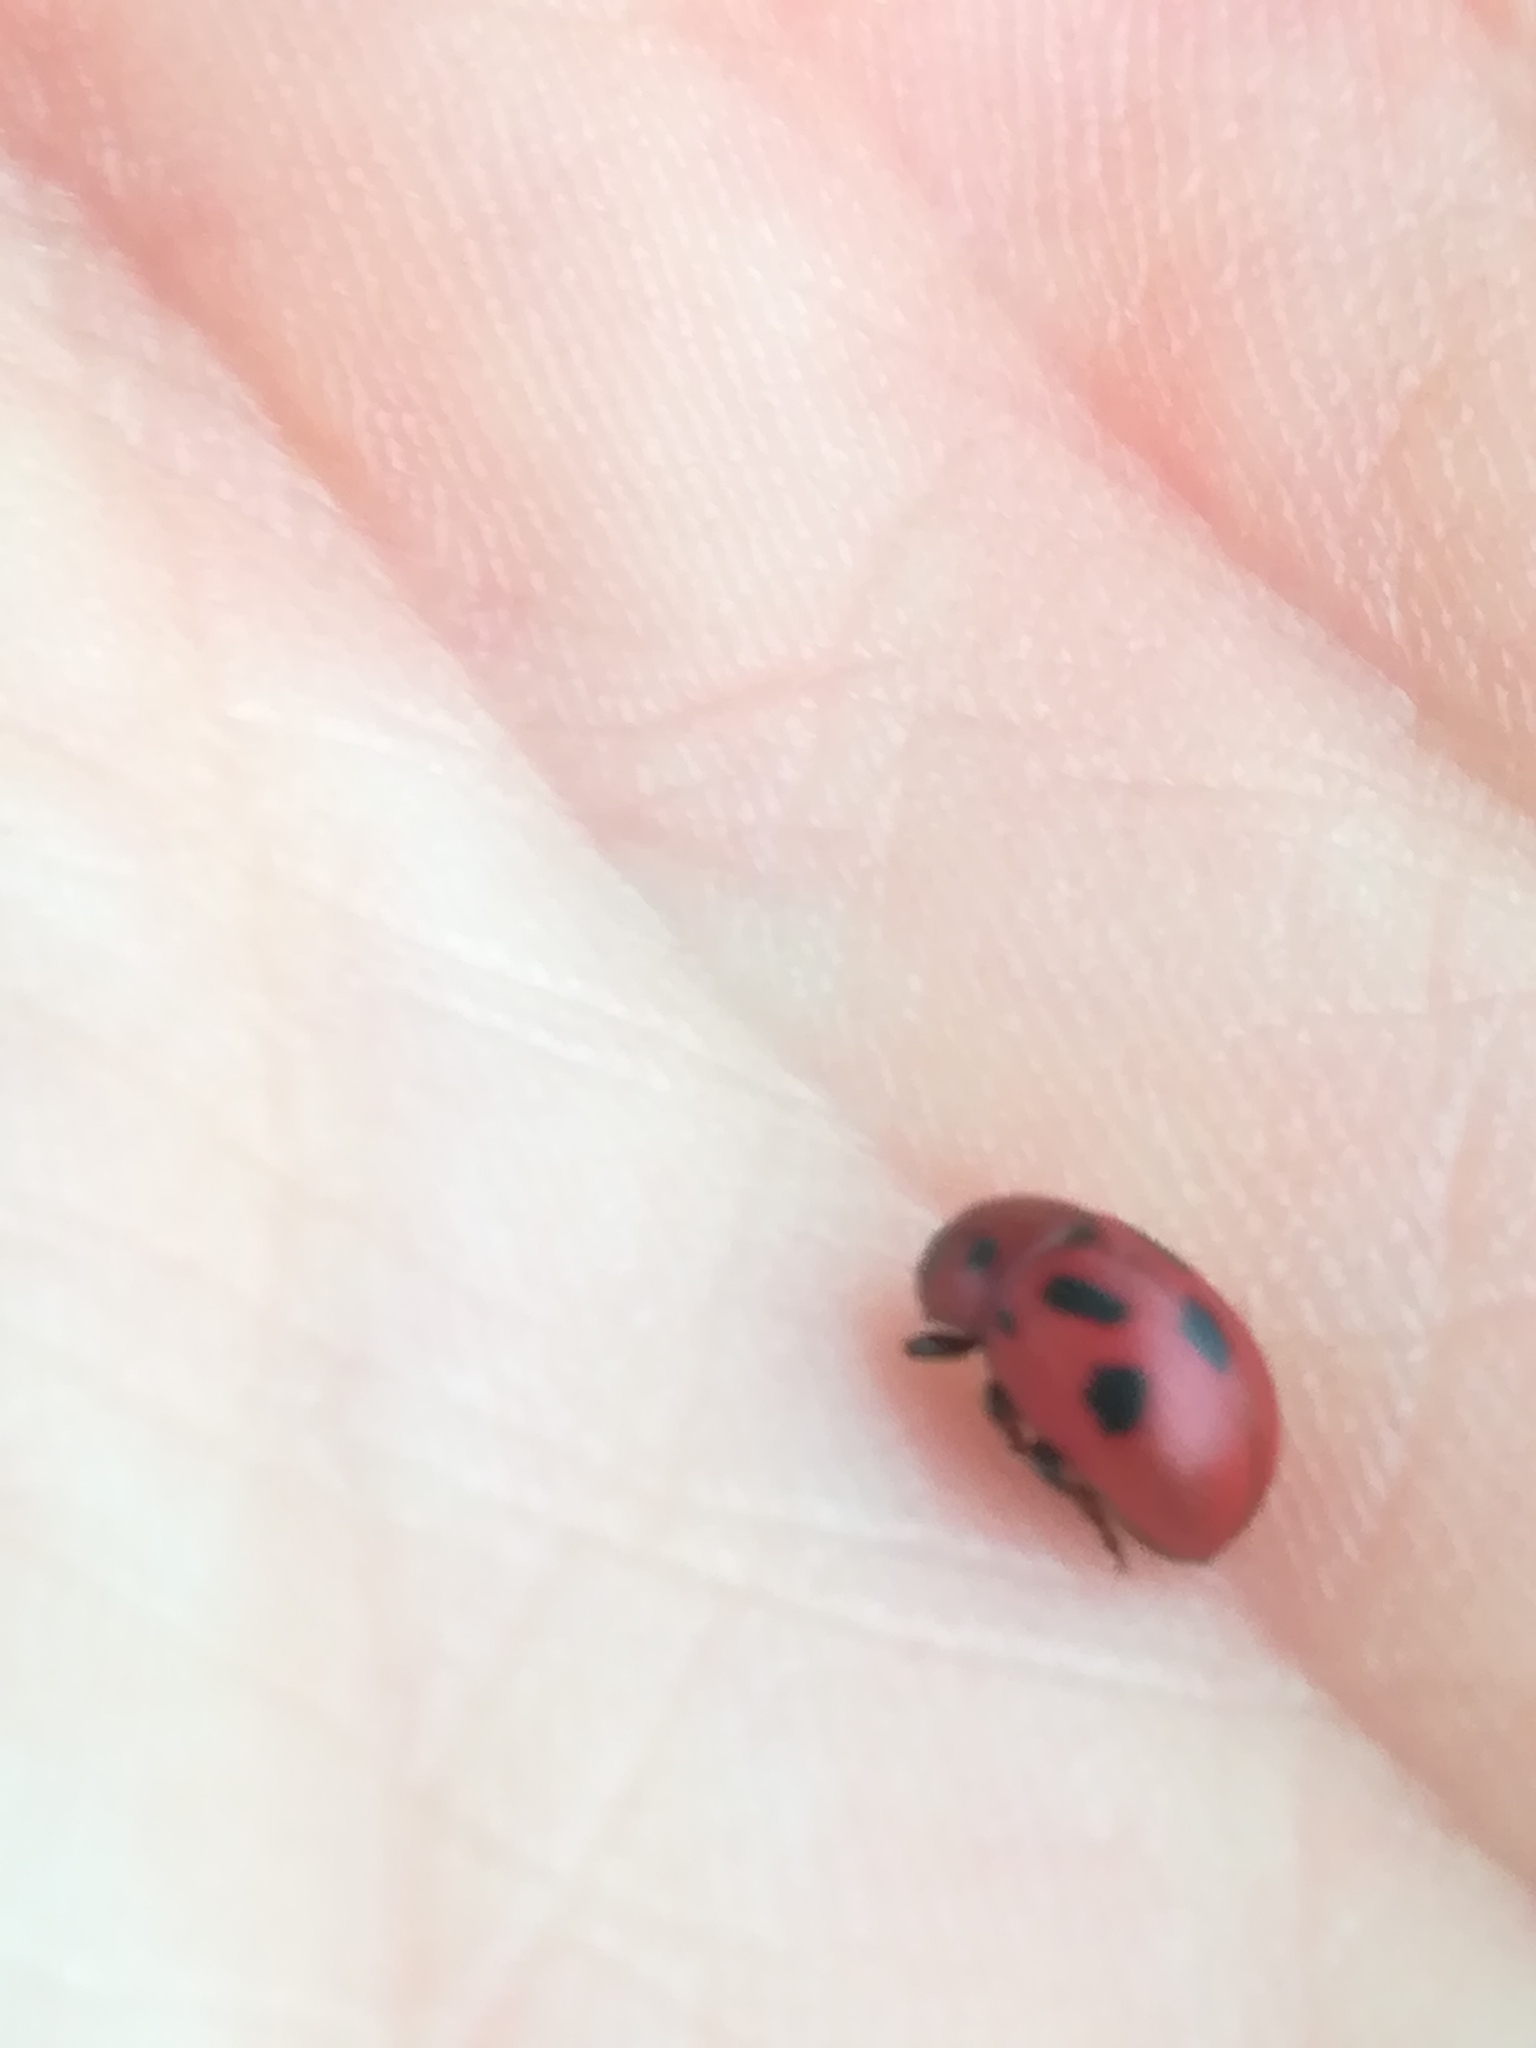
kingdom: Animalia
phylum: Arthropoda
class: Insecta
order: Coleoptera
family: Chrysomelidae
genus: Gonioctena
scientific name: Gonioctena fornicata
